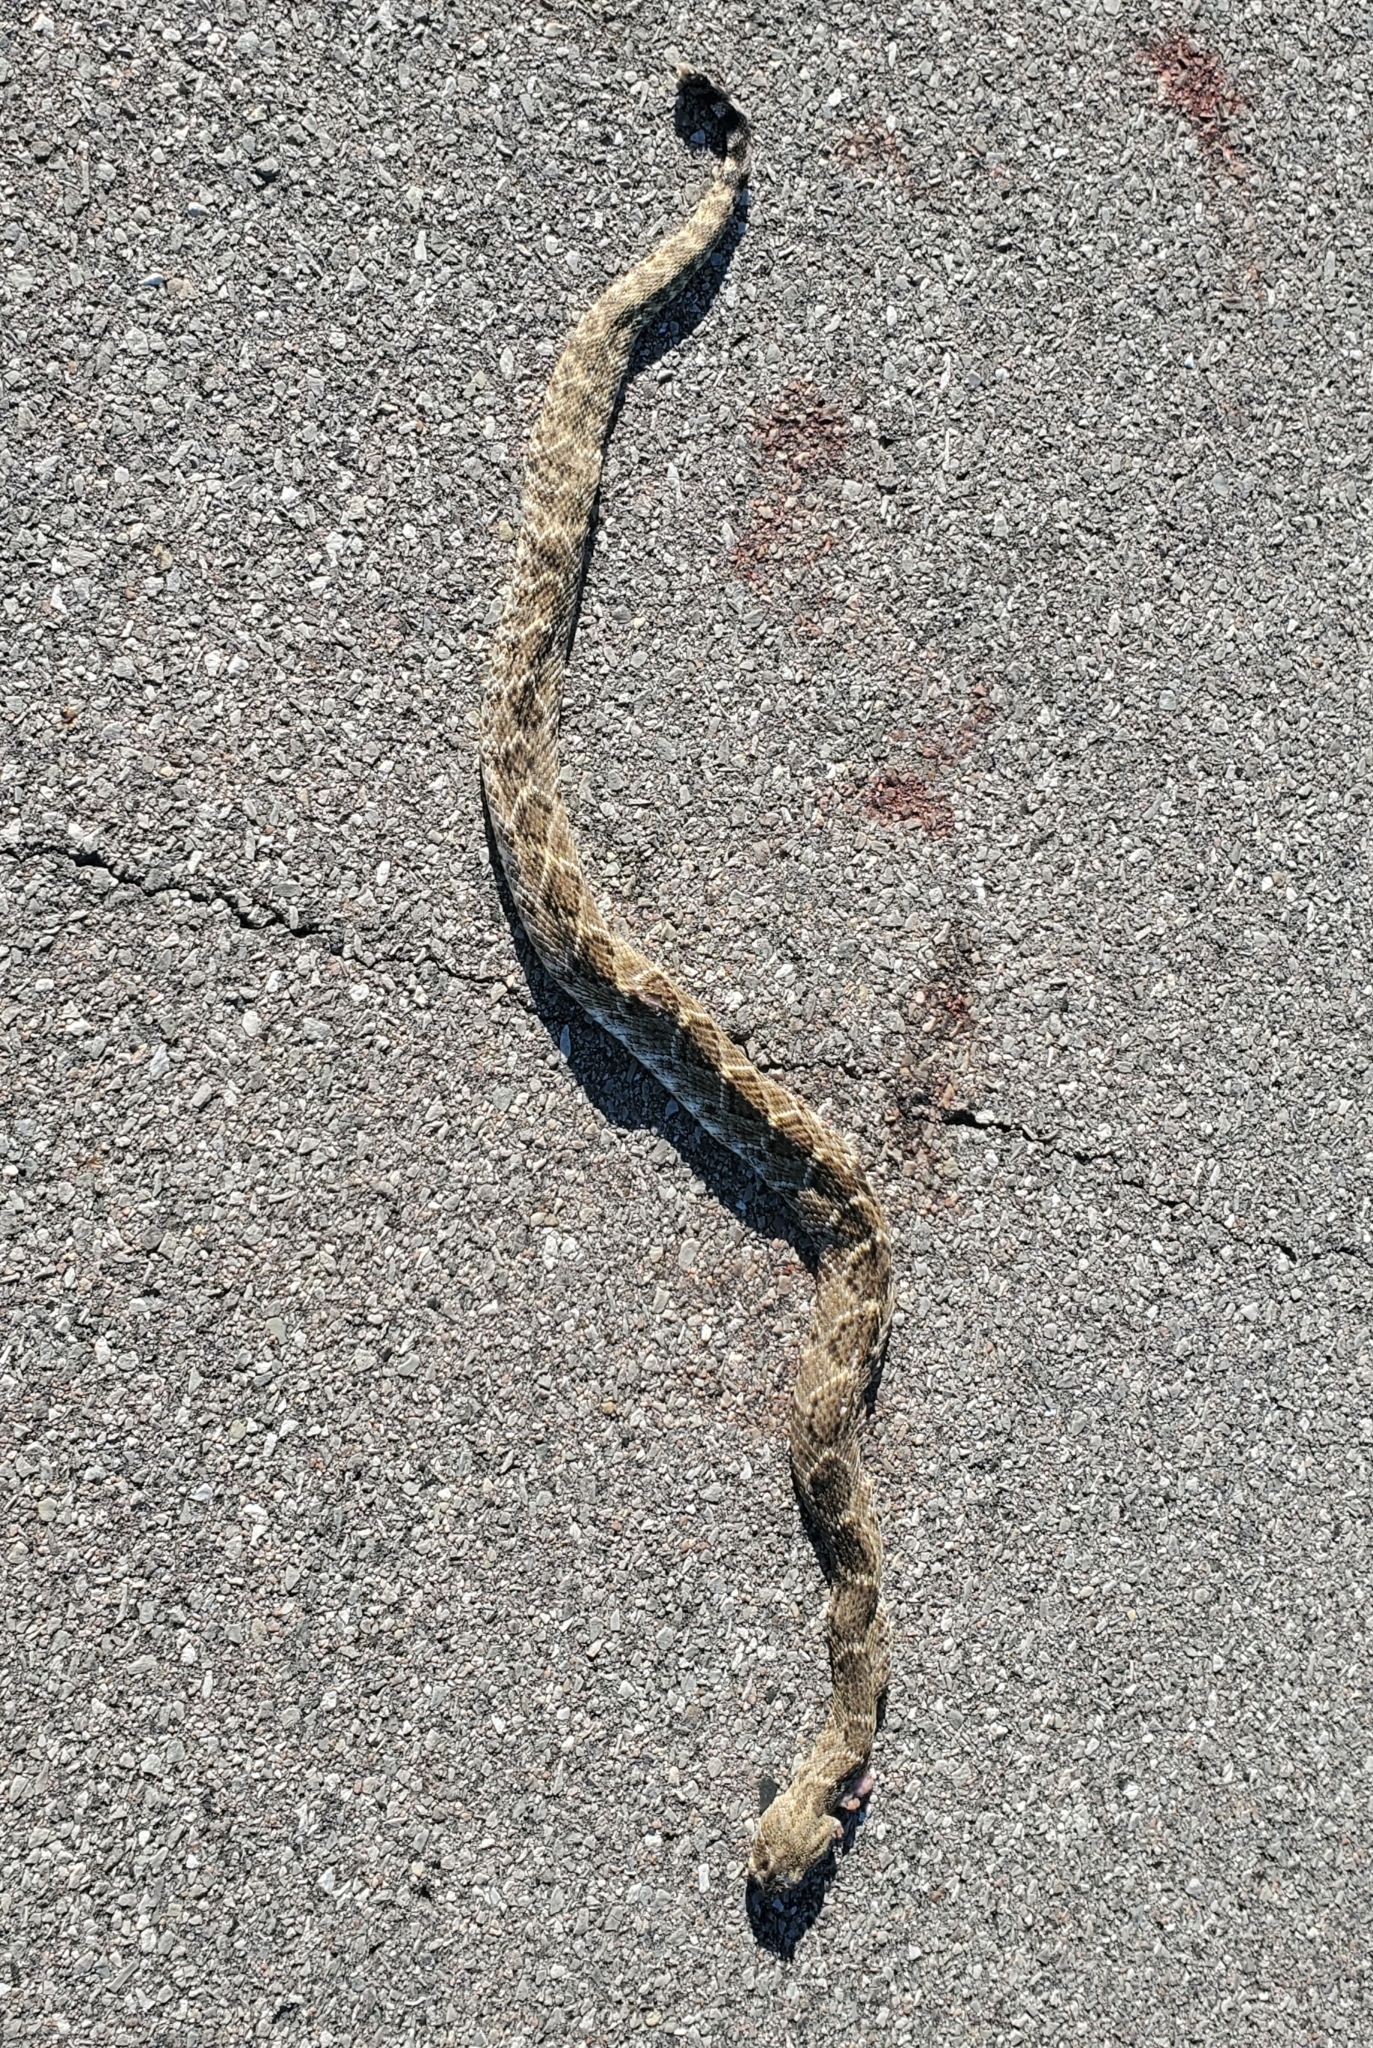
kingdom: Animalia
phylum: Chordata
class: Squamata
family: Viperidae
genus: Crotalus
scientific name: Crotalus atrox
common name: Western diamond-backed rattlesnake
